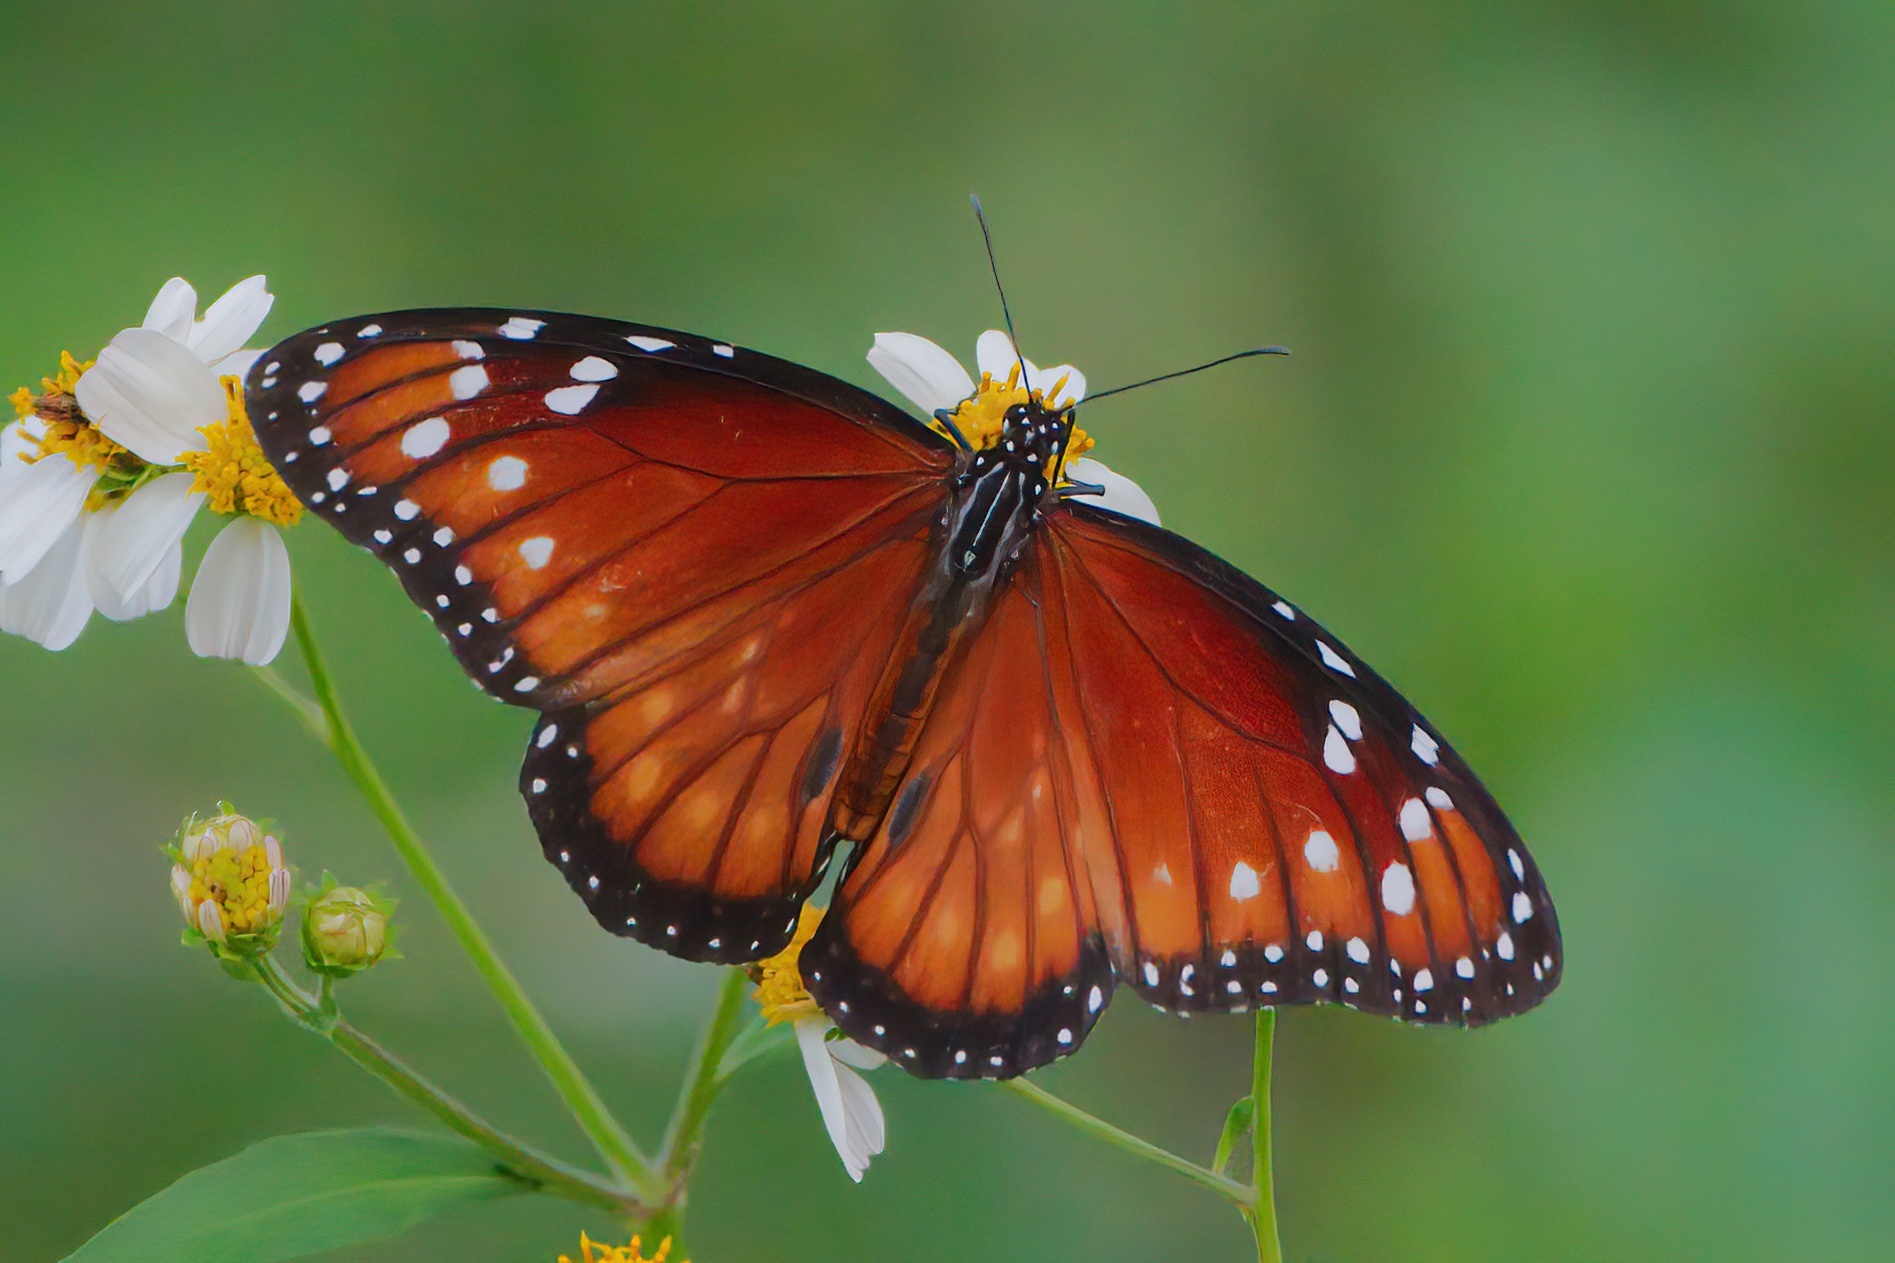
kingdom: Animalia
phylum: Arthropoda
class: Insecta
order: Lepidoptera
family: Nymphalidae
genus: Danaus
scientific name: Danaus eresimus
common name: Soldier
